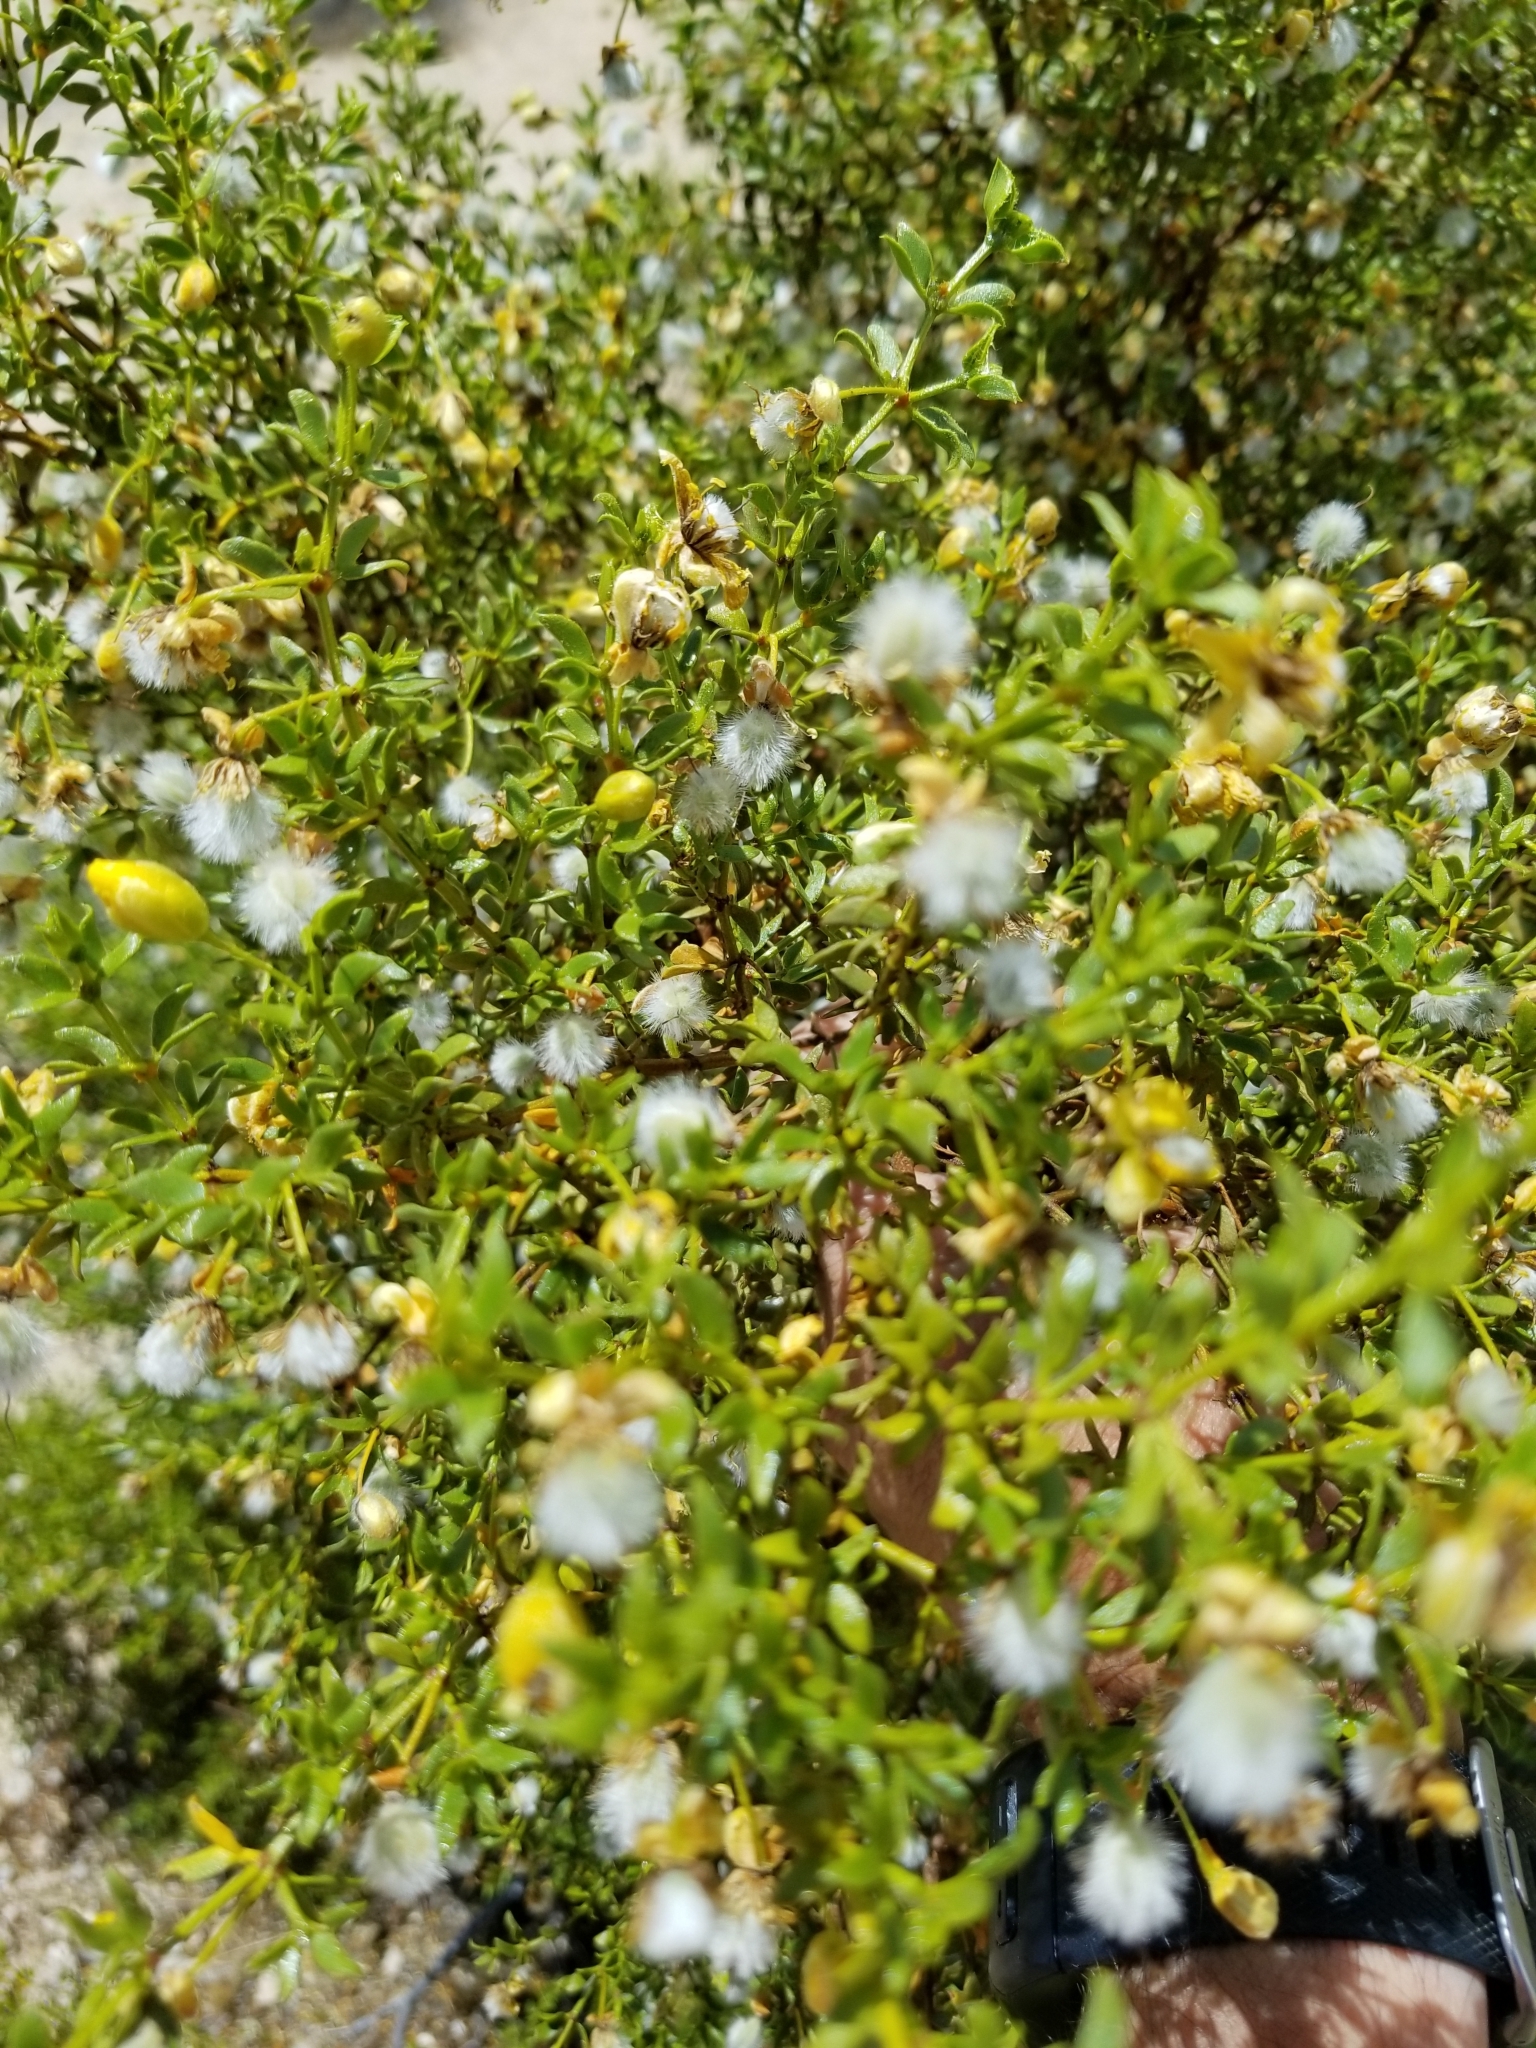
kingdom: Plantae
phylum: Tracheophyta
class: Magnoliopsida
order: Zygophyllales
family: Zygophyllaceae
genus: Larrea
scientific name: Larrea tridentata
